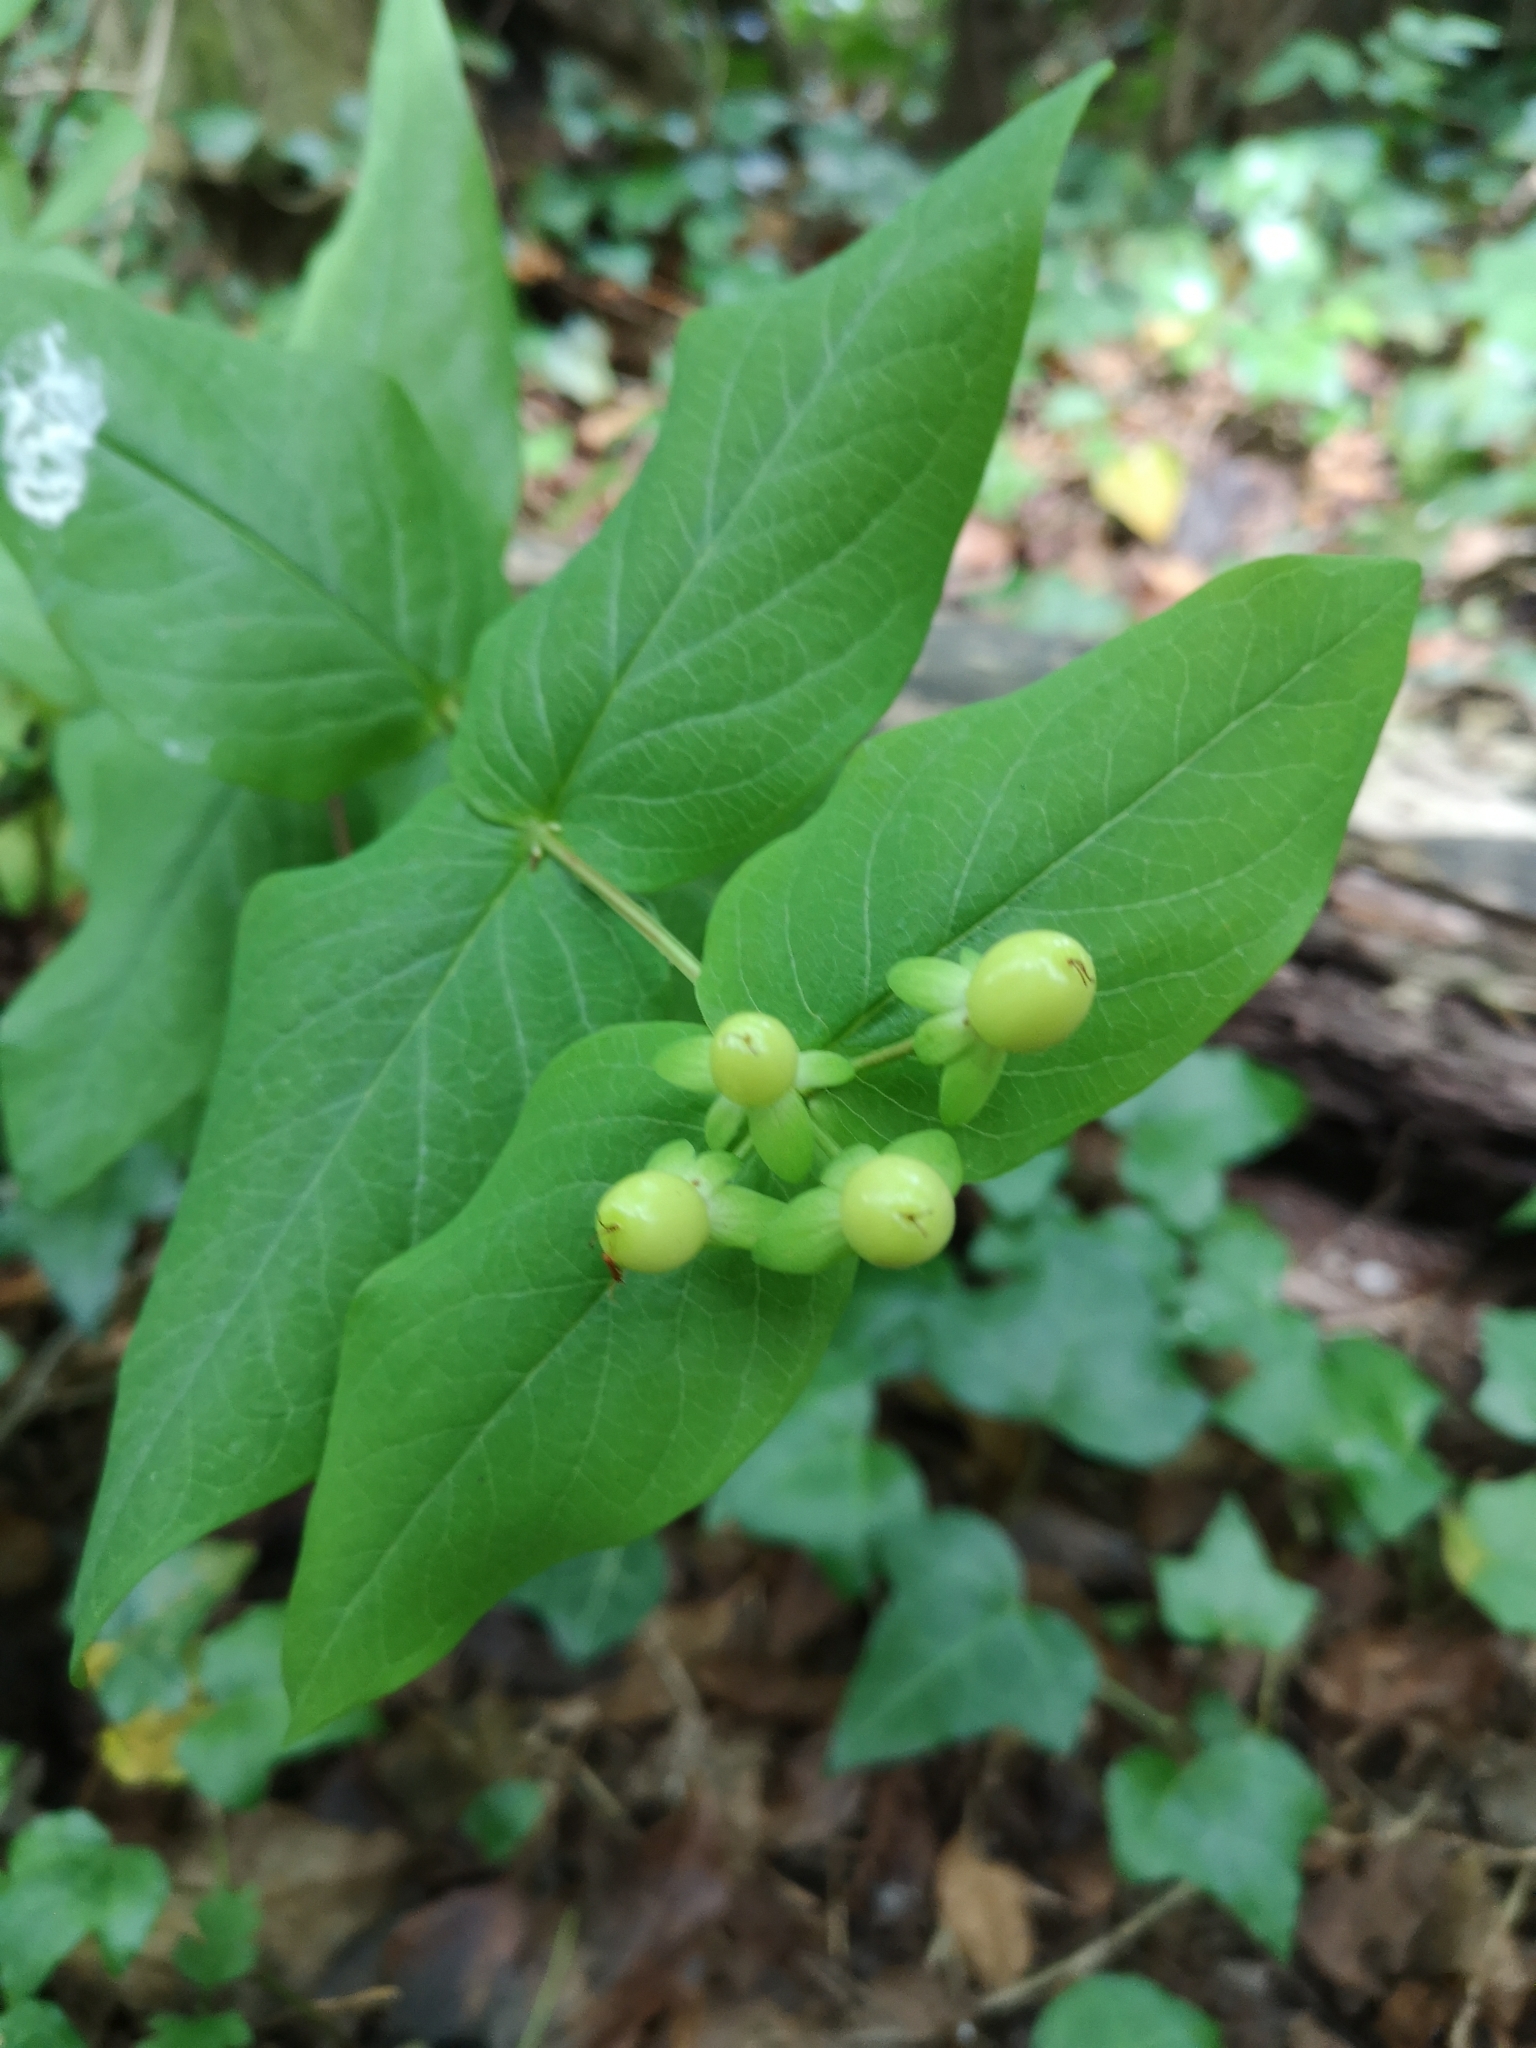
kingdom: Plantae
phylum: Tracheophyta
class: Magnoliopsida
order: Malpighiales
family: Hypericaceae
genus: Hypericum
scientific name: Hypericum androsaemum
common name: Sweet-amber
